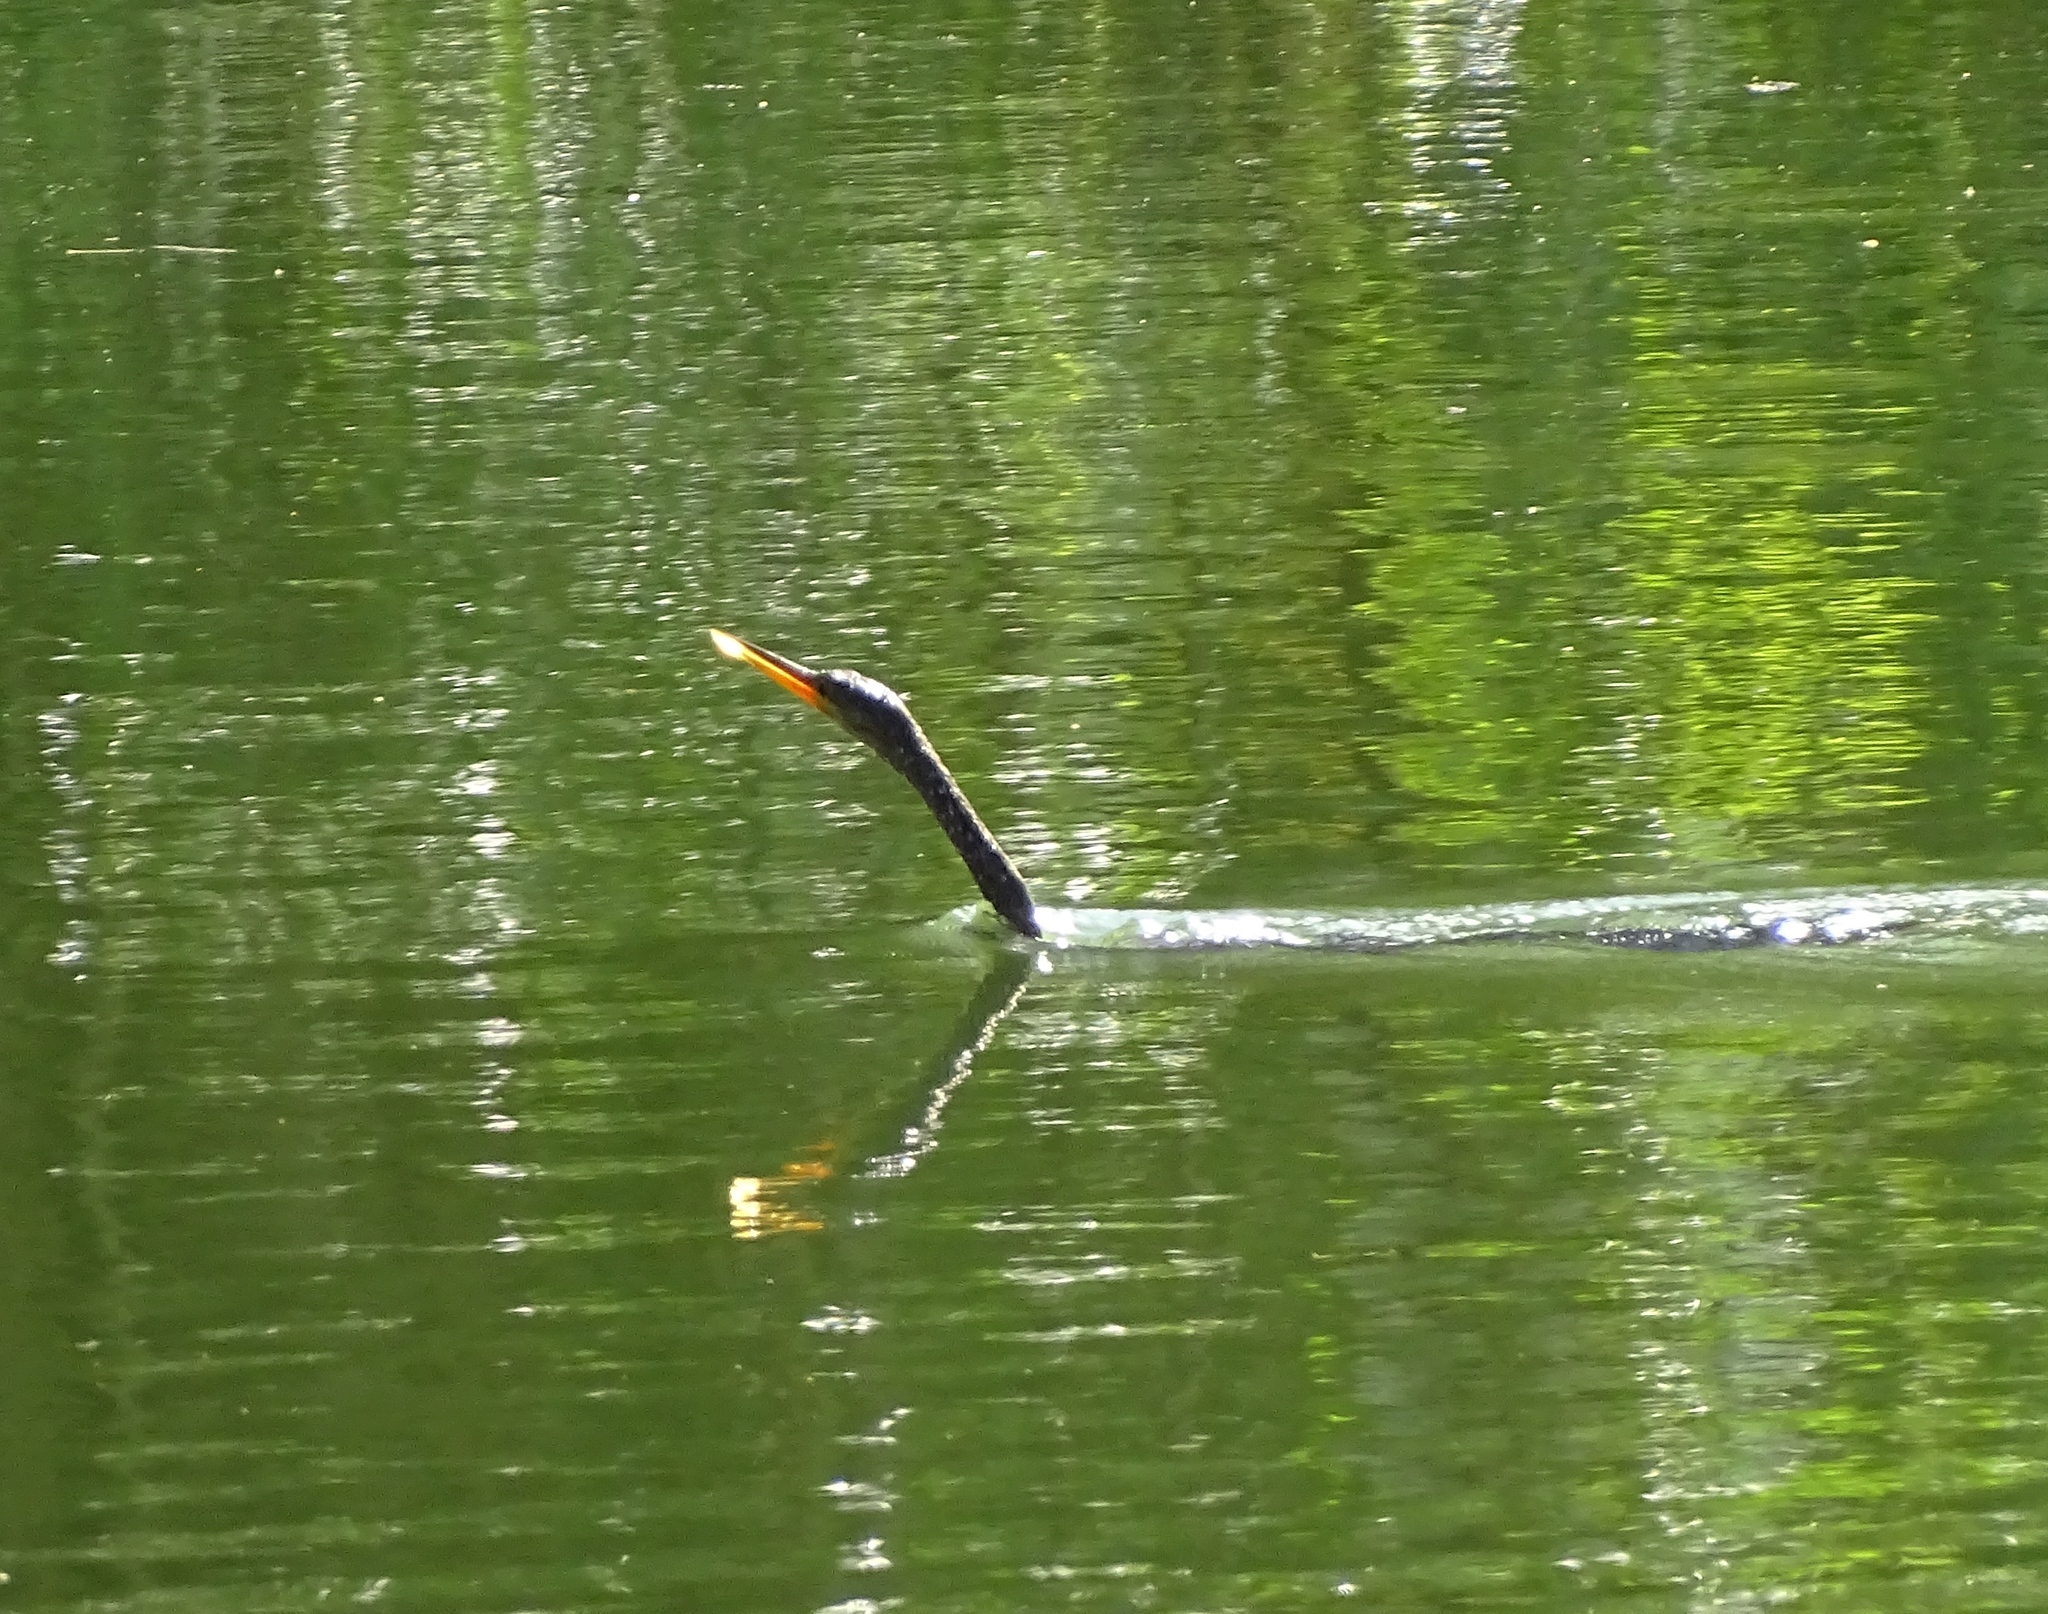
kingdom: Animalia
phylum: Chordata
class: Aves
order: Suliformes
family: Anhingidae
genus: Anhinga
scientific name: Anhinga anhinga
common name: Anhinga
